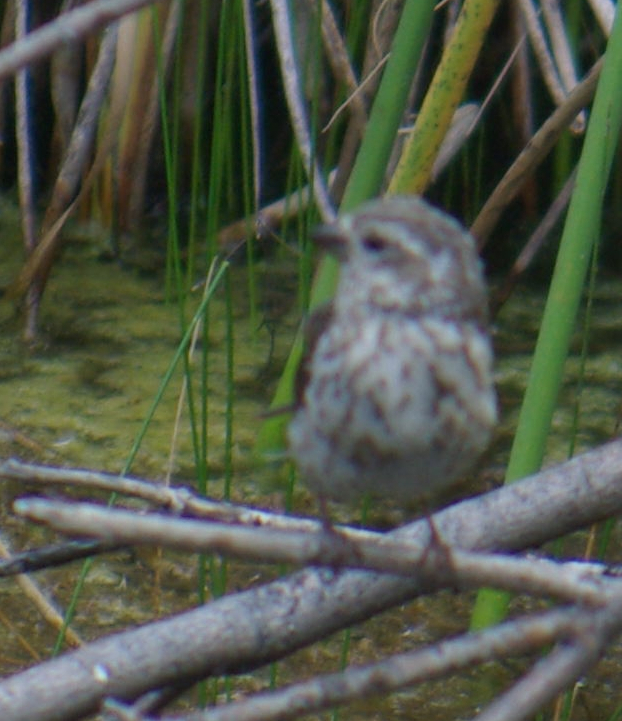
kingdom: Animalia
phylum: Chordata
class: Aves
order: Passeriformes
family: Fringillidae
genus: Haemorhous
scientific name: Haemorhous purpureus
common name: Purple finch
